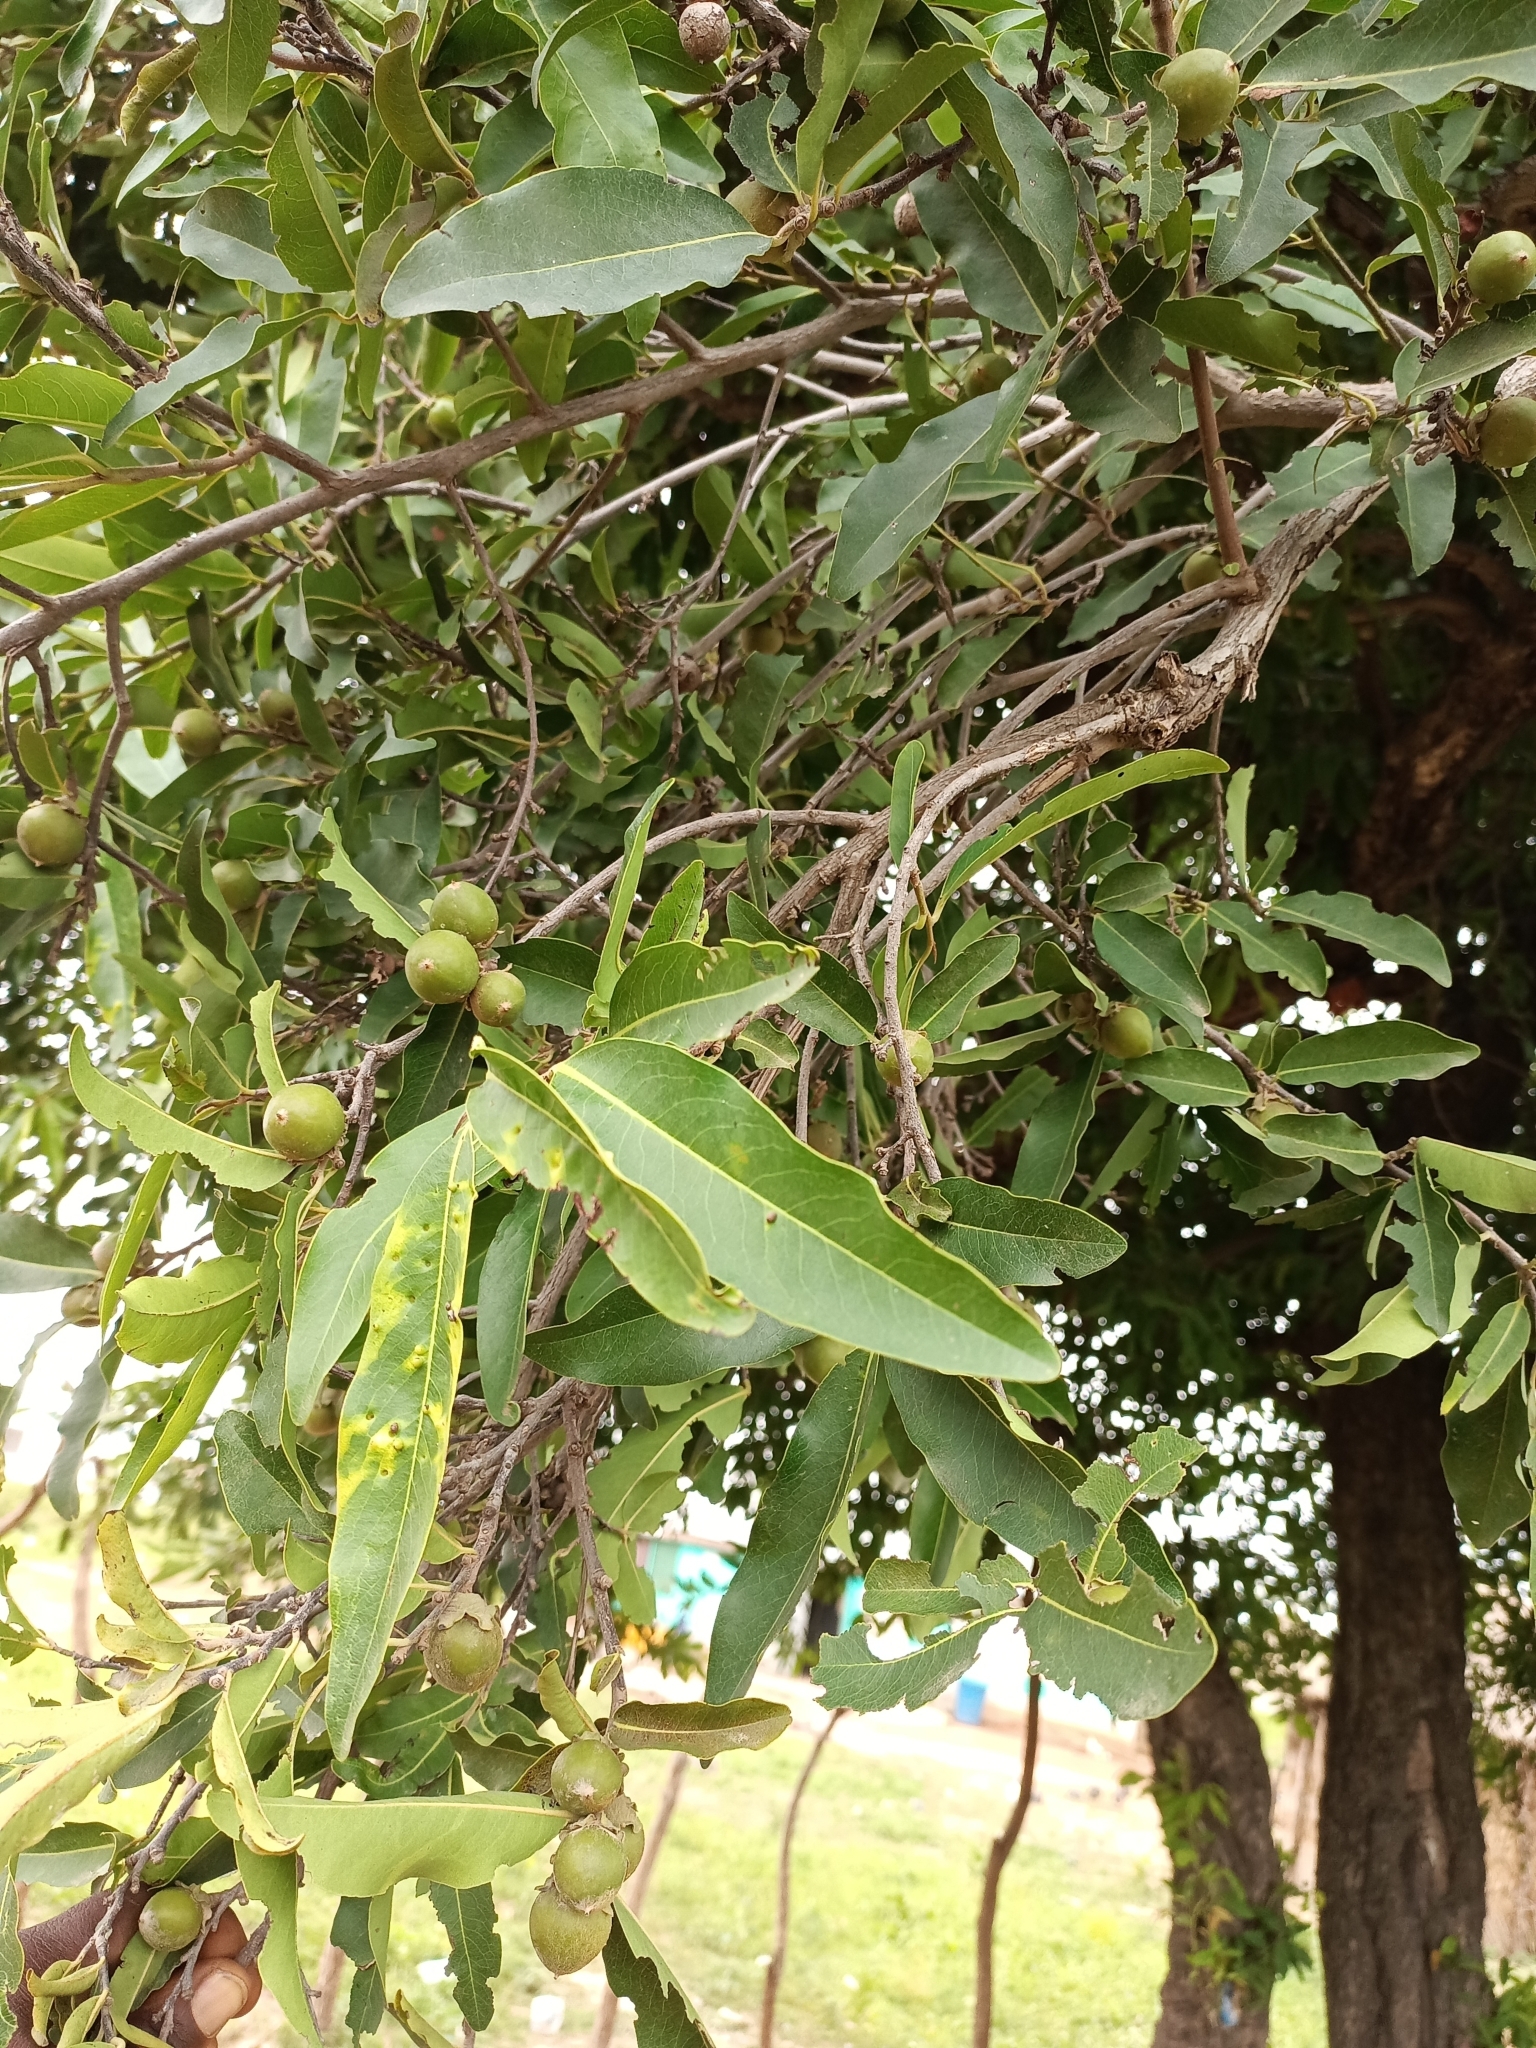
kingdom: Plantae
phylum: Tracheophyta
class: Magnoliopsida
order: Ericales
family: Ebenaceae
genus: Diospyros
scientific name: Diospyros mespiliformis
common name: Ebony diospyros
